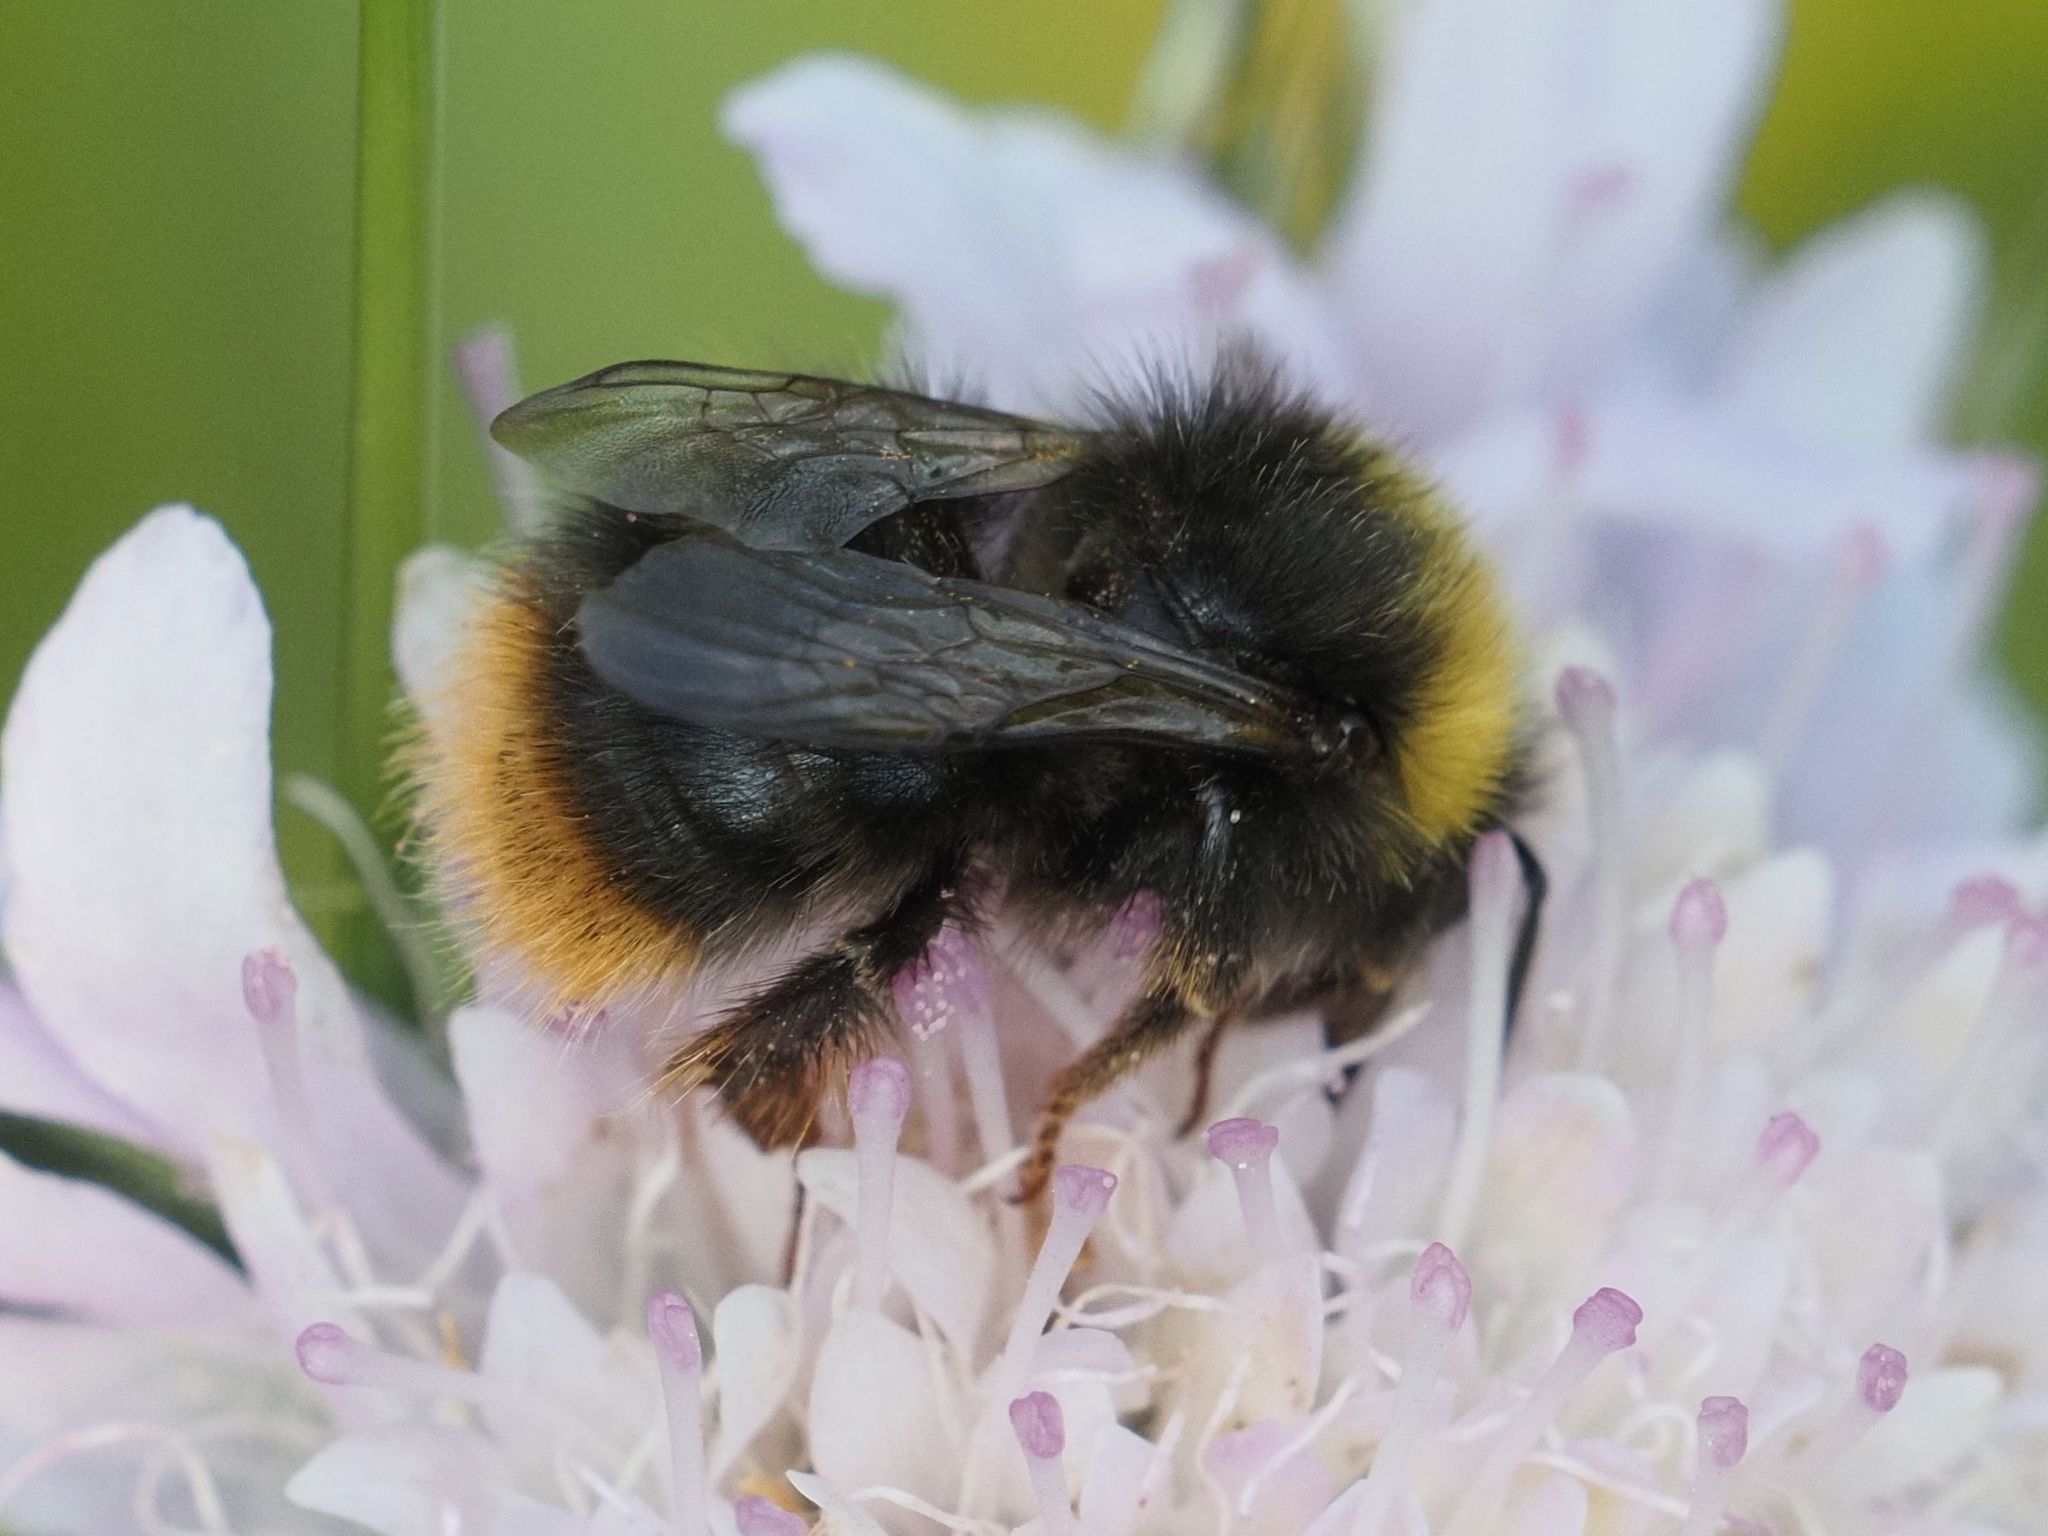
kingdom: Animalia
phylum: Arthropoda
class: Insecta
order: Hymenoptera
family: Apidae
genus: Bombus
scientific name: Bombus pratorum
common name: Early humble-bee
